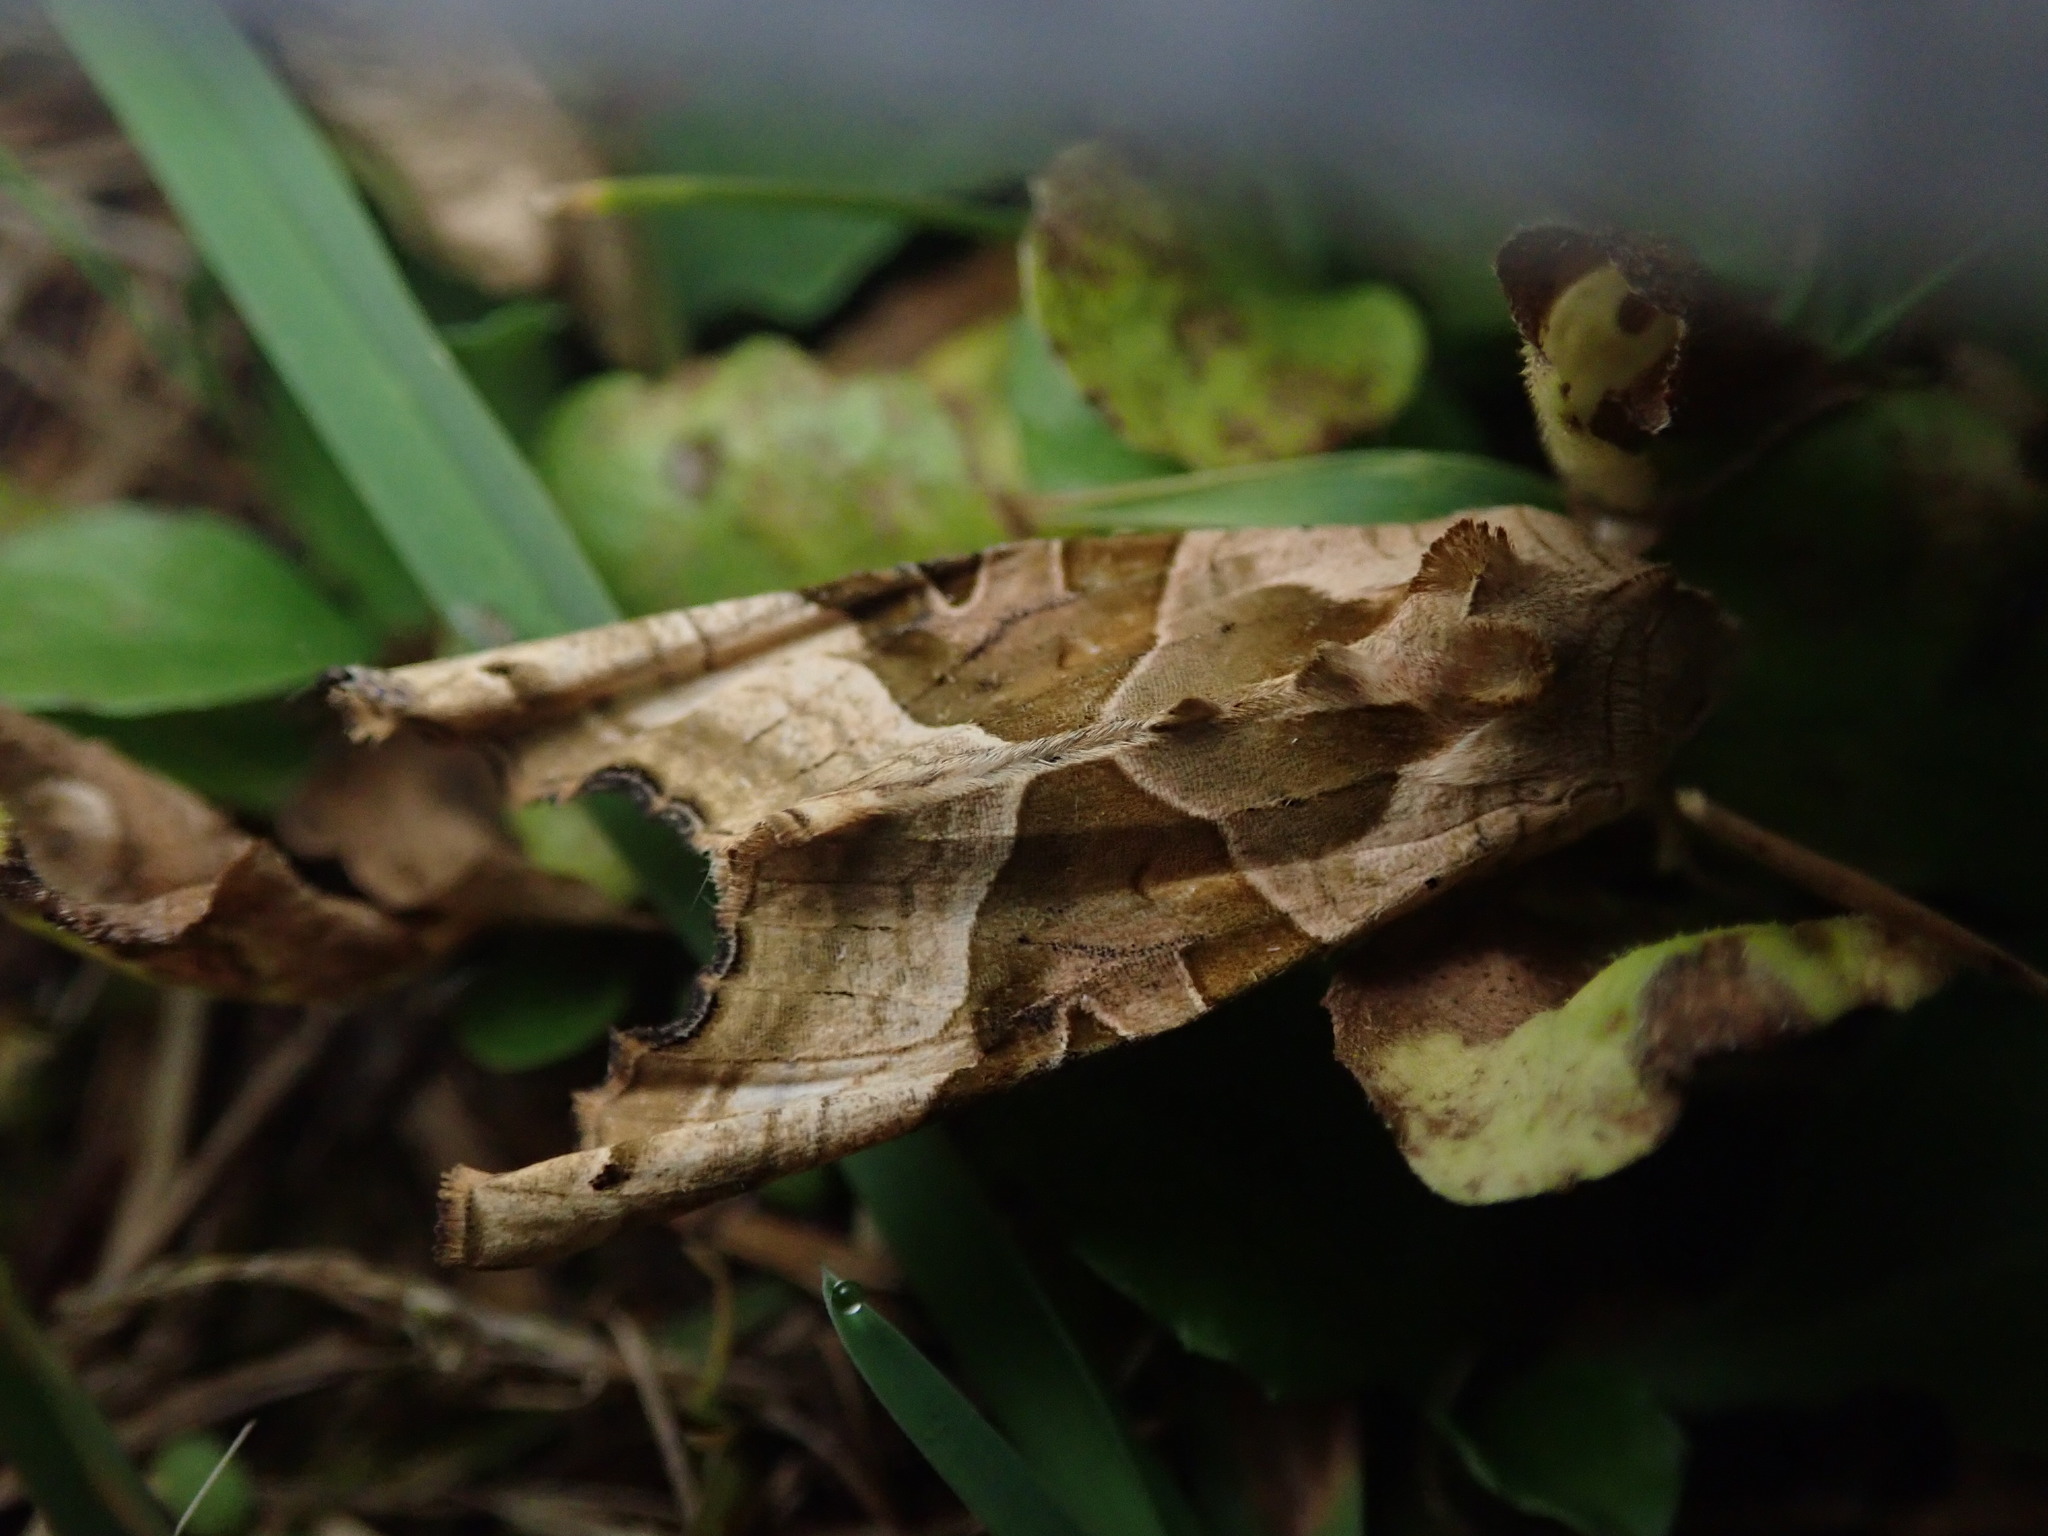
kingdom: Animalia
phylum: Arthropoda
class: Insecta
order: Lepidoptera
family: Noctuidae
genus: Phlogophora
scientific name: Phlogophora meticulosa
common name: Angle shades
